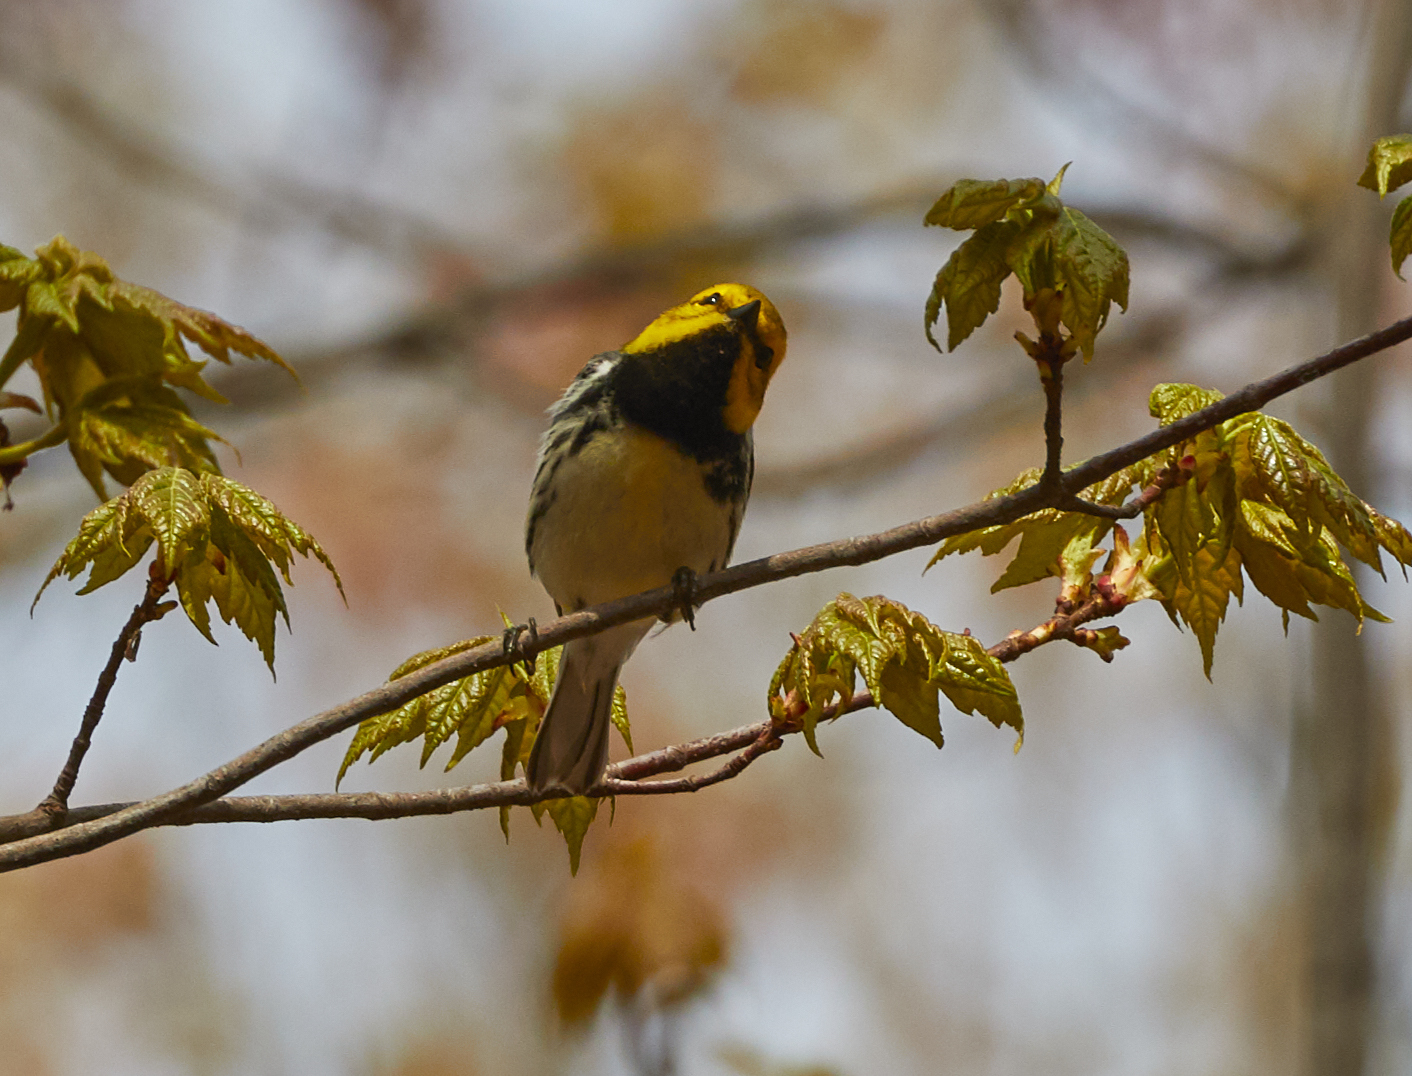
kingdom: Animalia
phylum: Chordata
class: Aves
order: Passeriformes
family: Parulidae
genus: Setophaga
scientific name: Setophaga virens
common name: Black-throated green warbler
